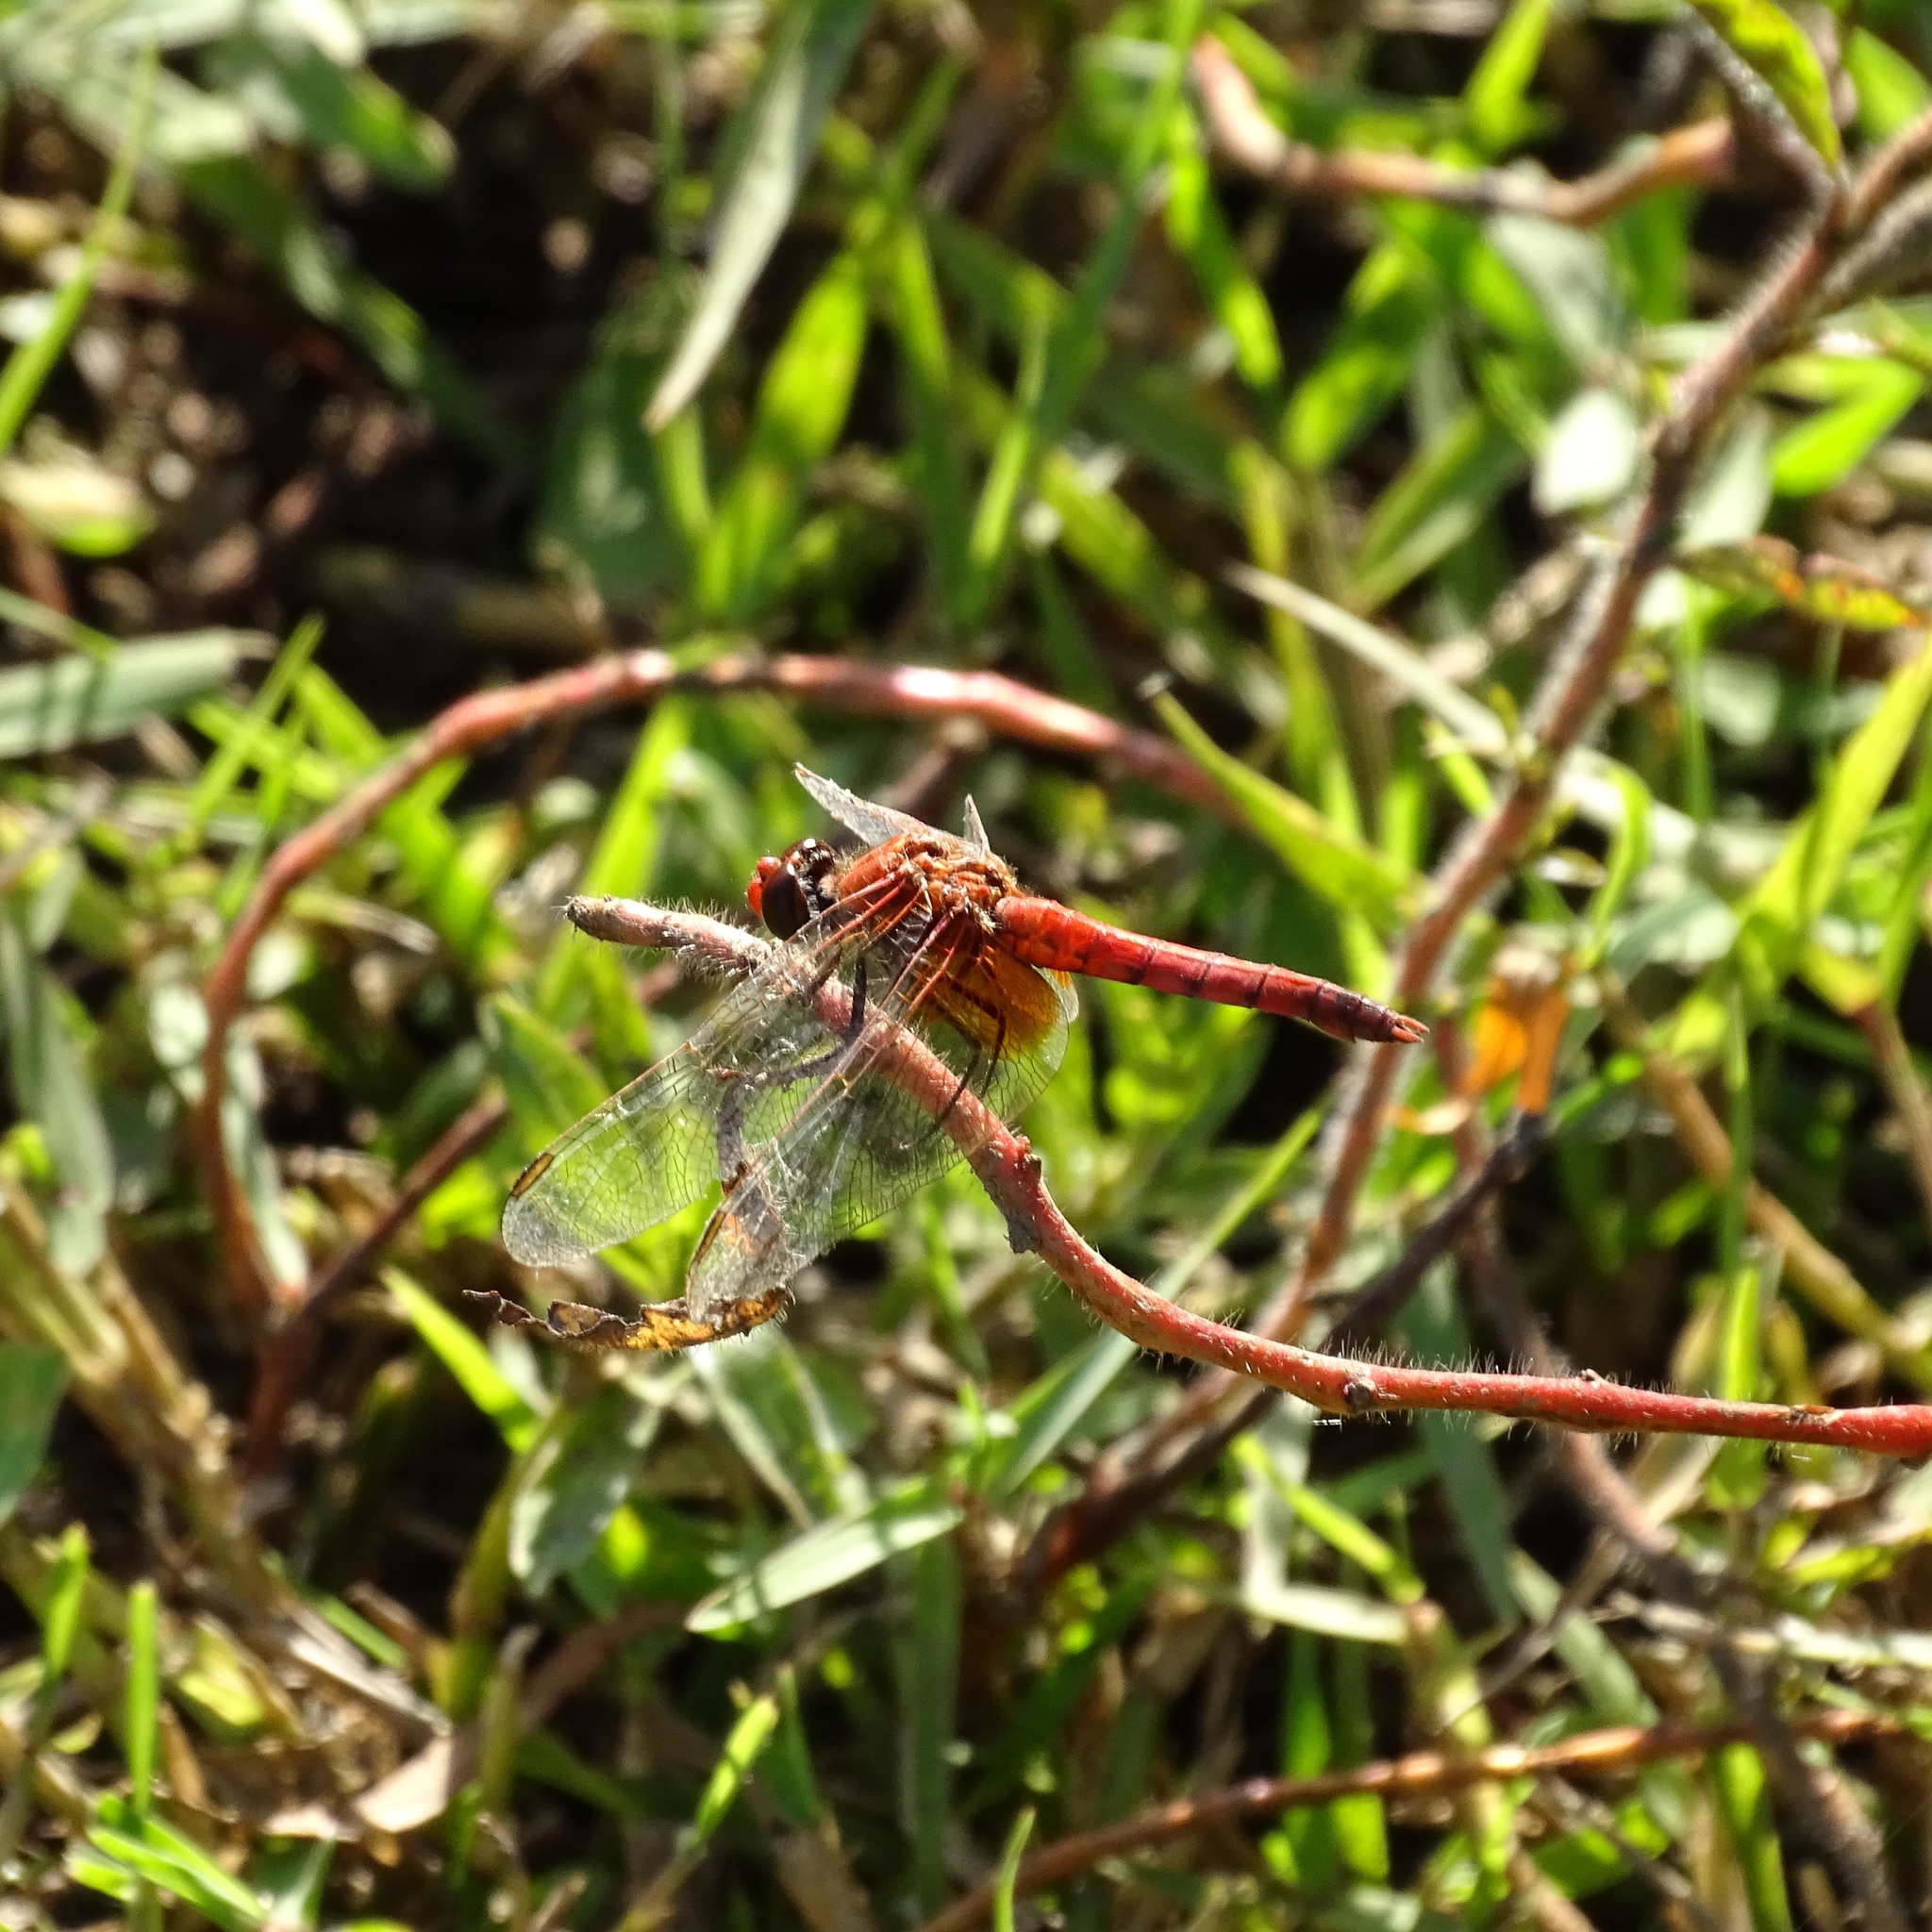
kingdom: Animalia
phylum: Arthropoda
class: Insecta
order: Odonata
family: Libellulidae
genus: Erythrodiplax
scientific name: Erythrodiplax corallina
